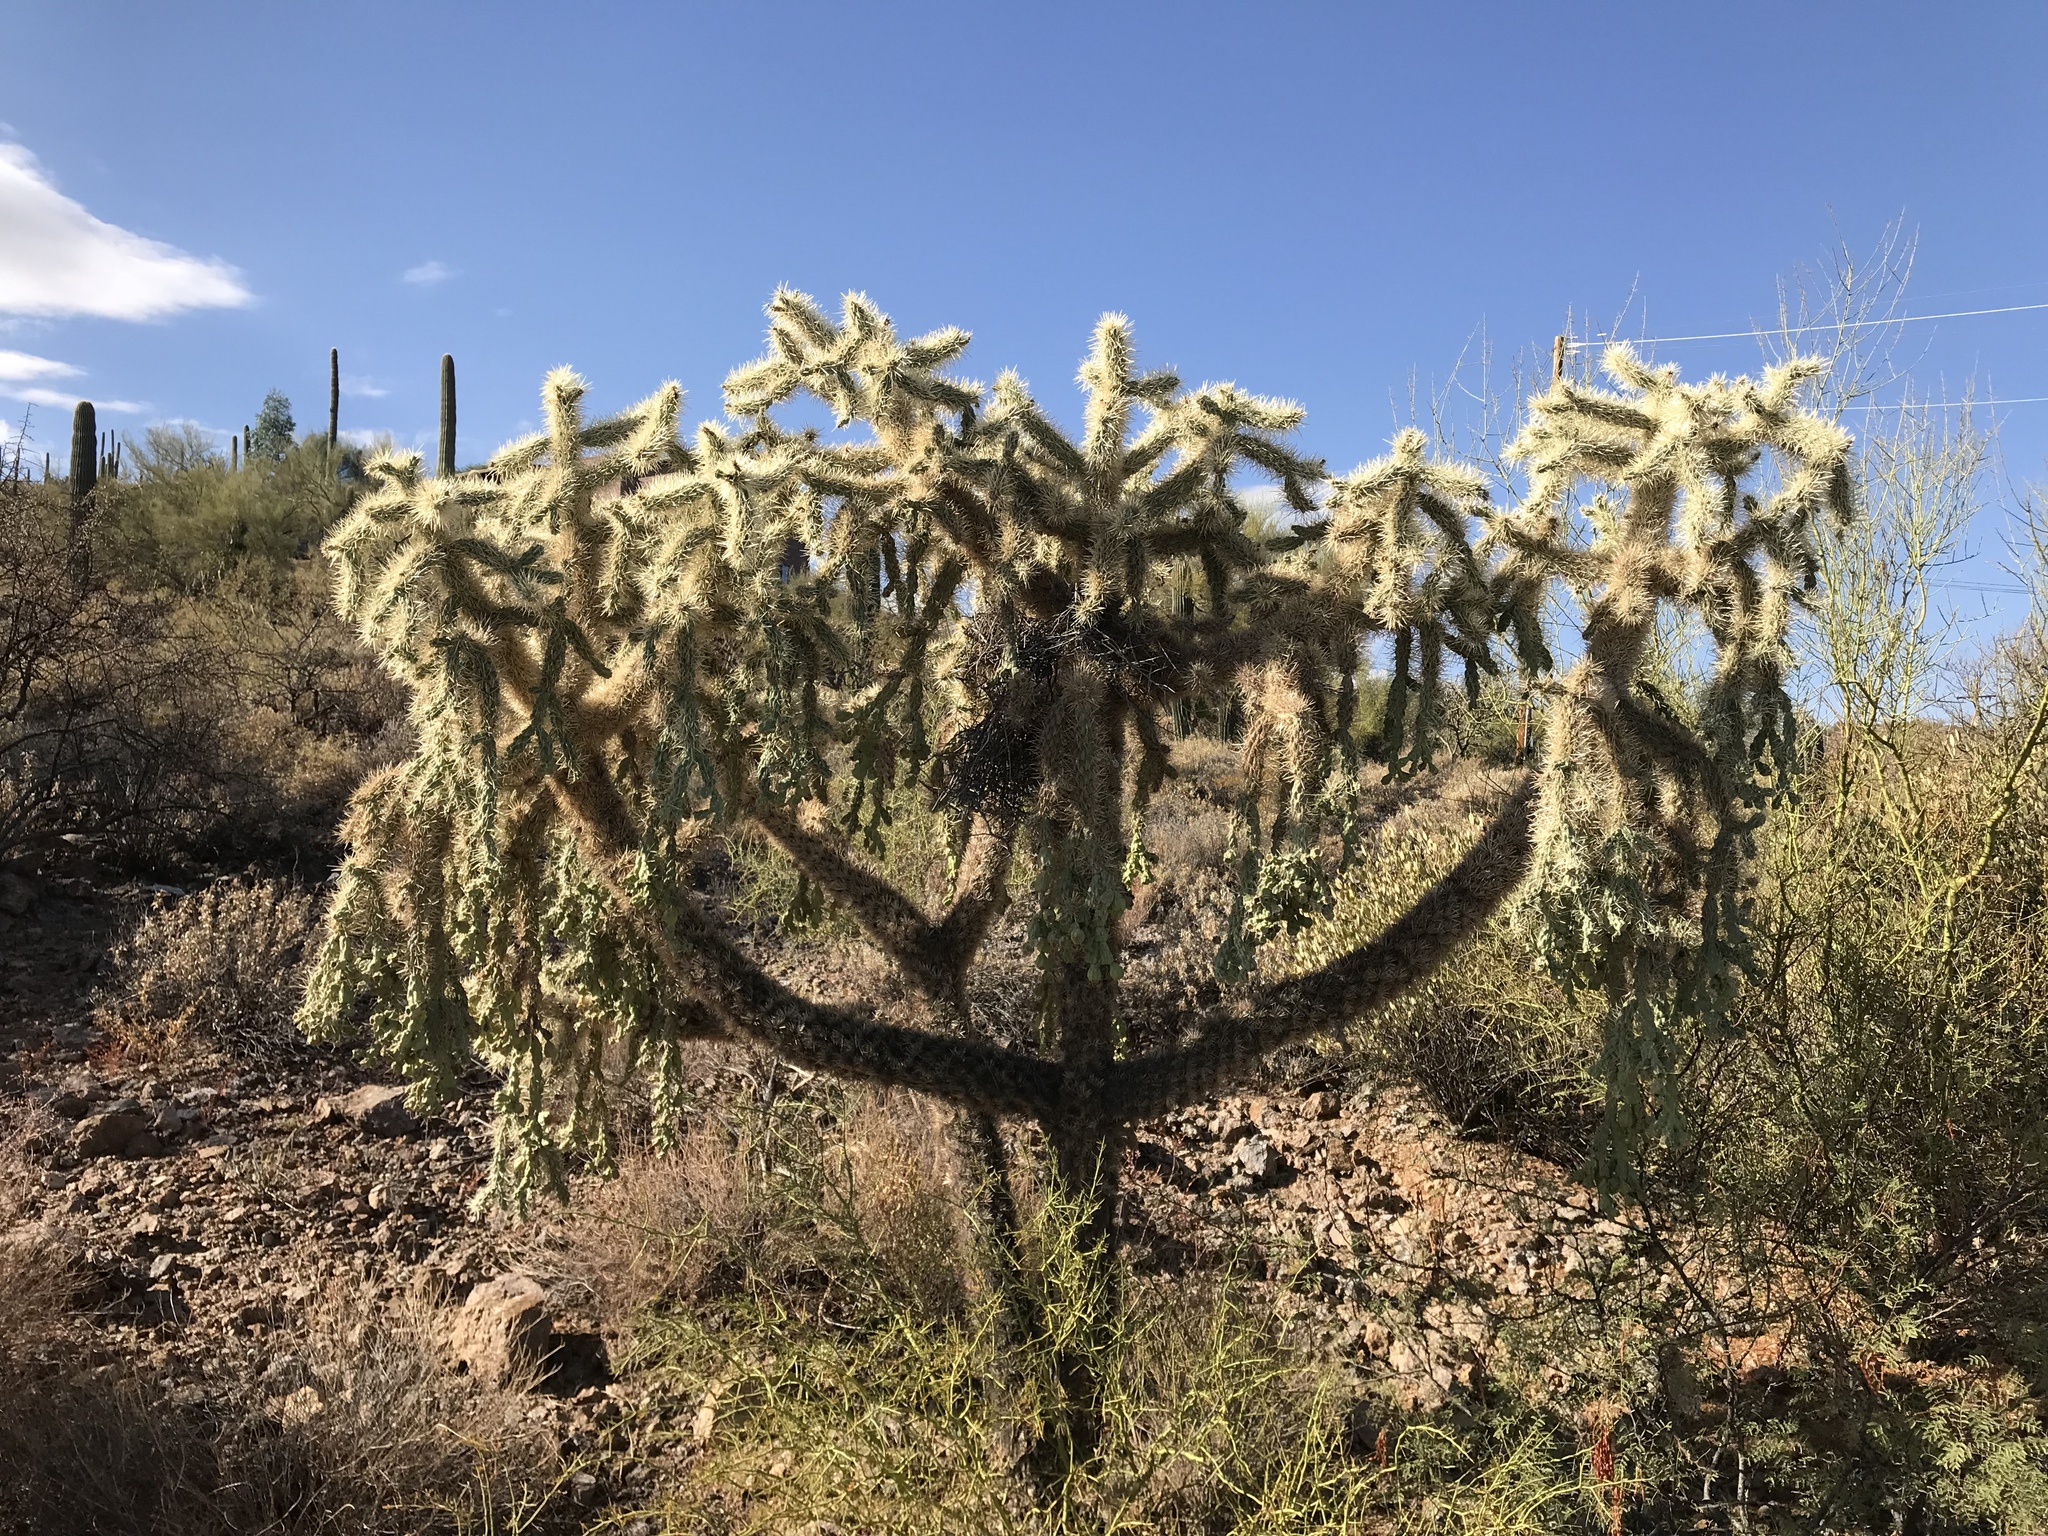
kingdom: Plantae
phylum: Tracheophyta
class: Magnoliopsida
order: Caryophyllales
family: Cactaceae
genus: Cylindropuntia
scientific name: Cylindropuntia fulgida
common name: Jumping cholla
